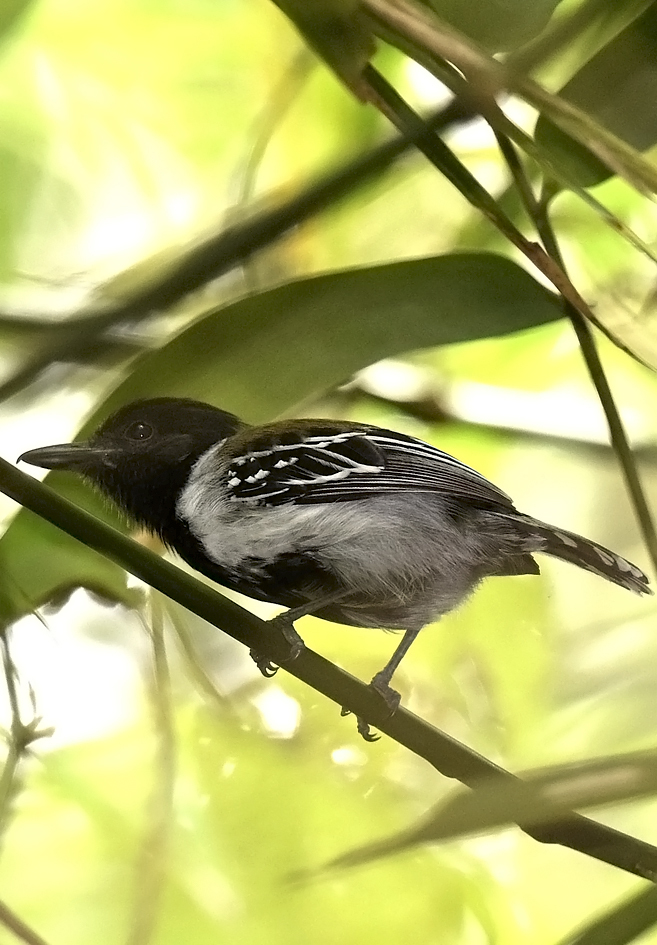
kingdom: Animalia
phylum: Chordata
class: Aves
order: Passeriformes
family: Thamnophilidae
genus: Sakesphorus
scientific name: Sakesphorus canadensis
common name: Black-crested antshrike
